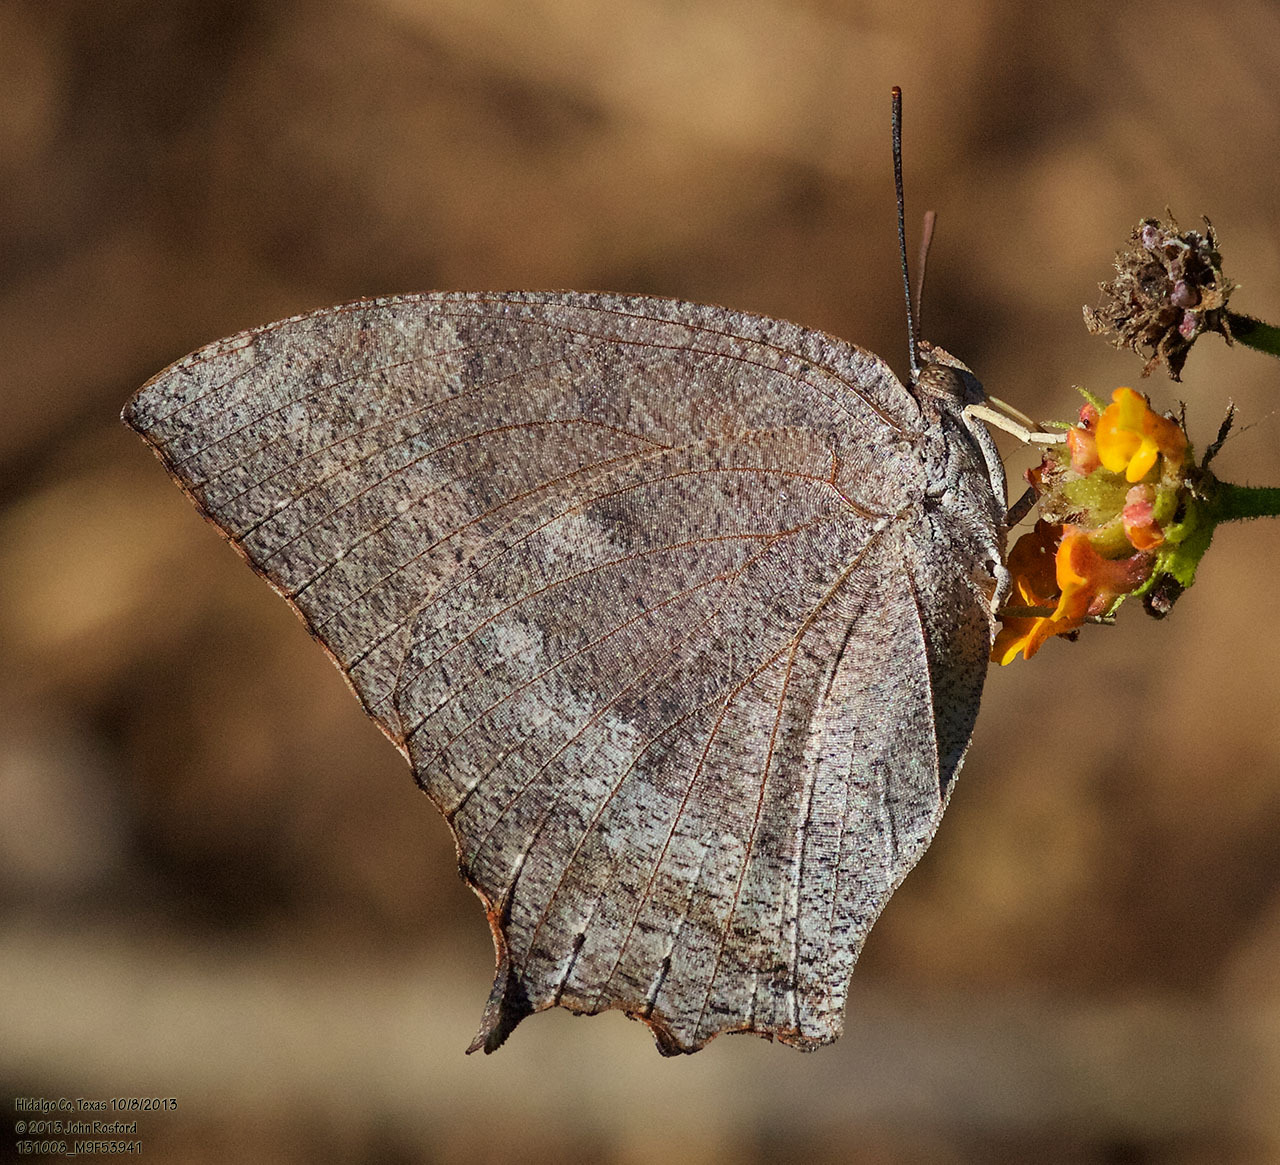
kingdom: Animalia
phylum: Arthropoda
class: Insecta
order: Lepidoptera
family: Nymphalidae
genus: Anaea
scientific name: Anaea aidea
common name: Tropical leafwing
